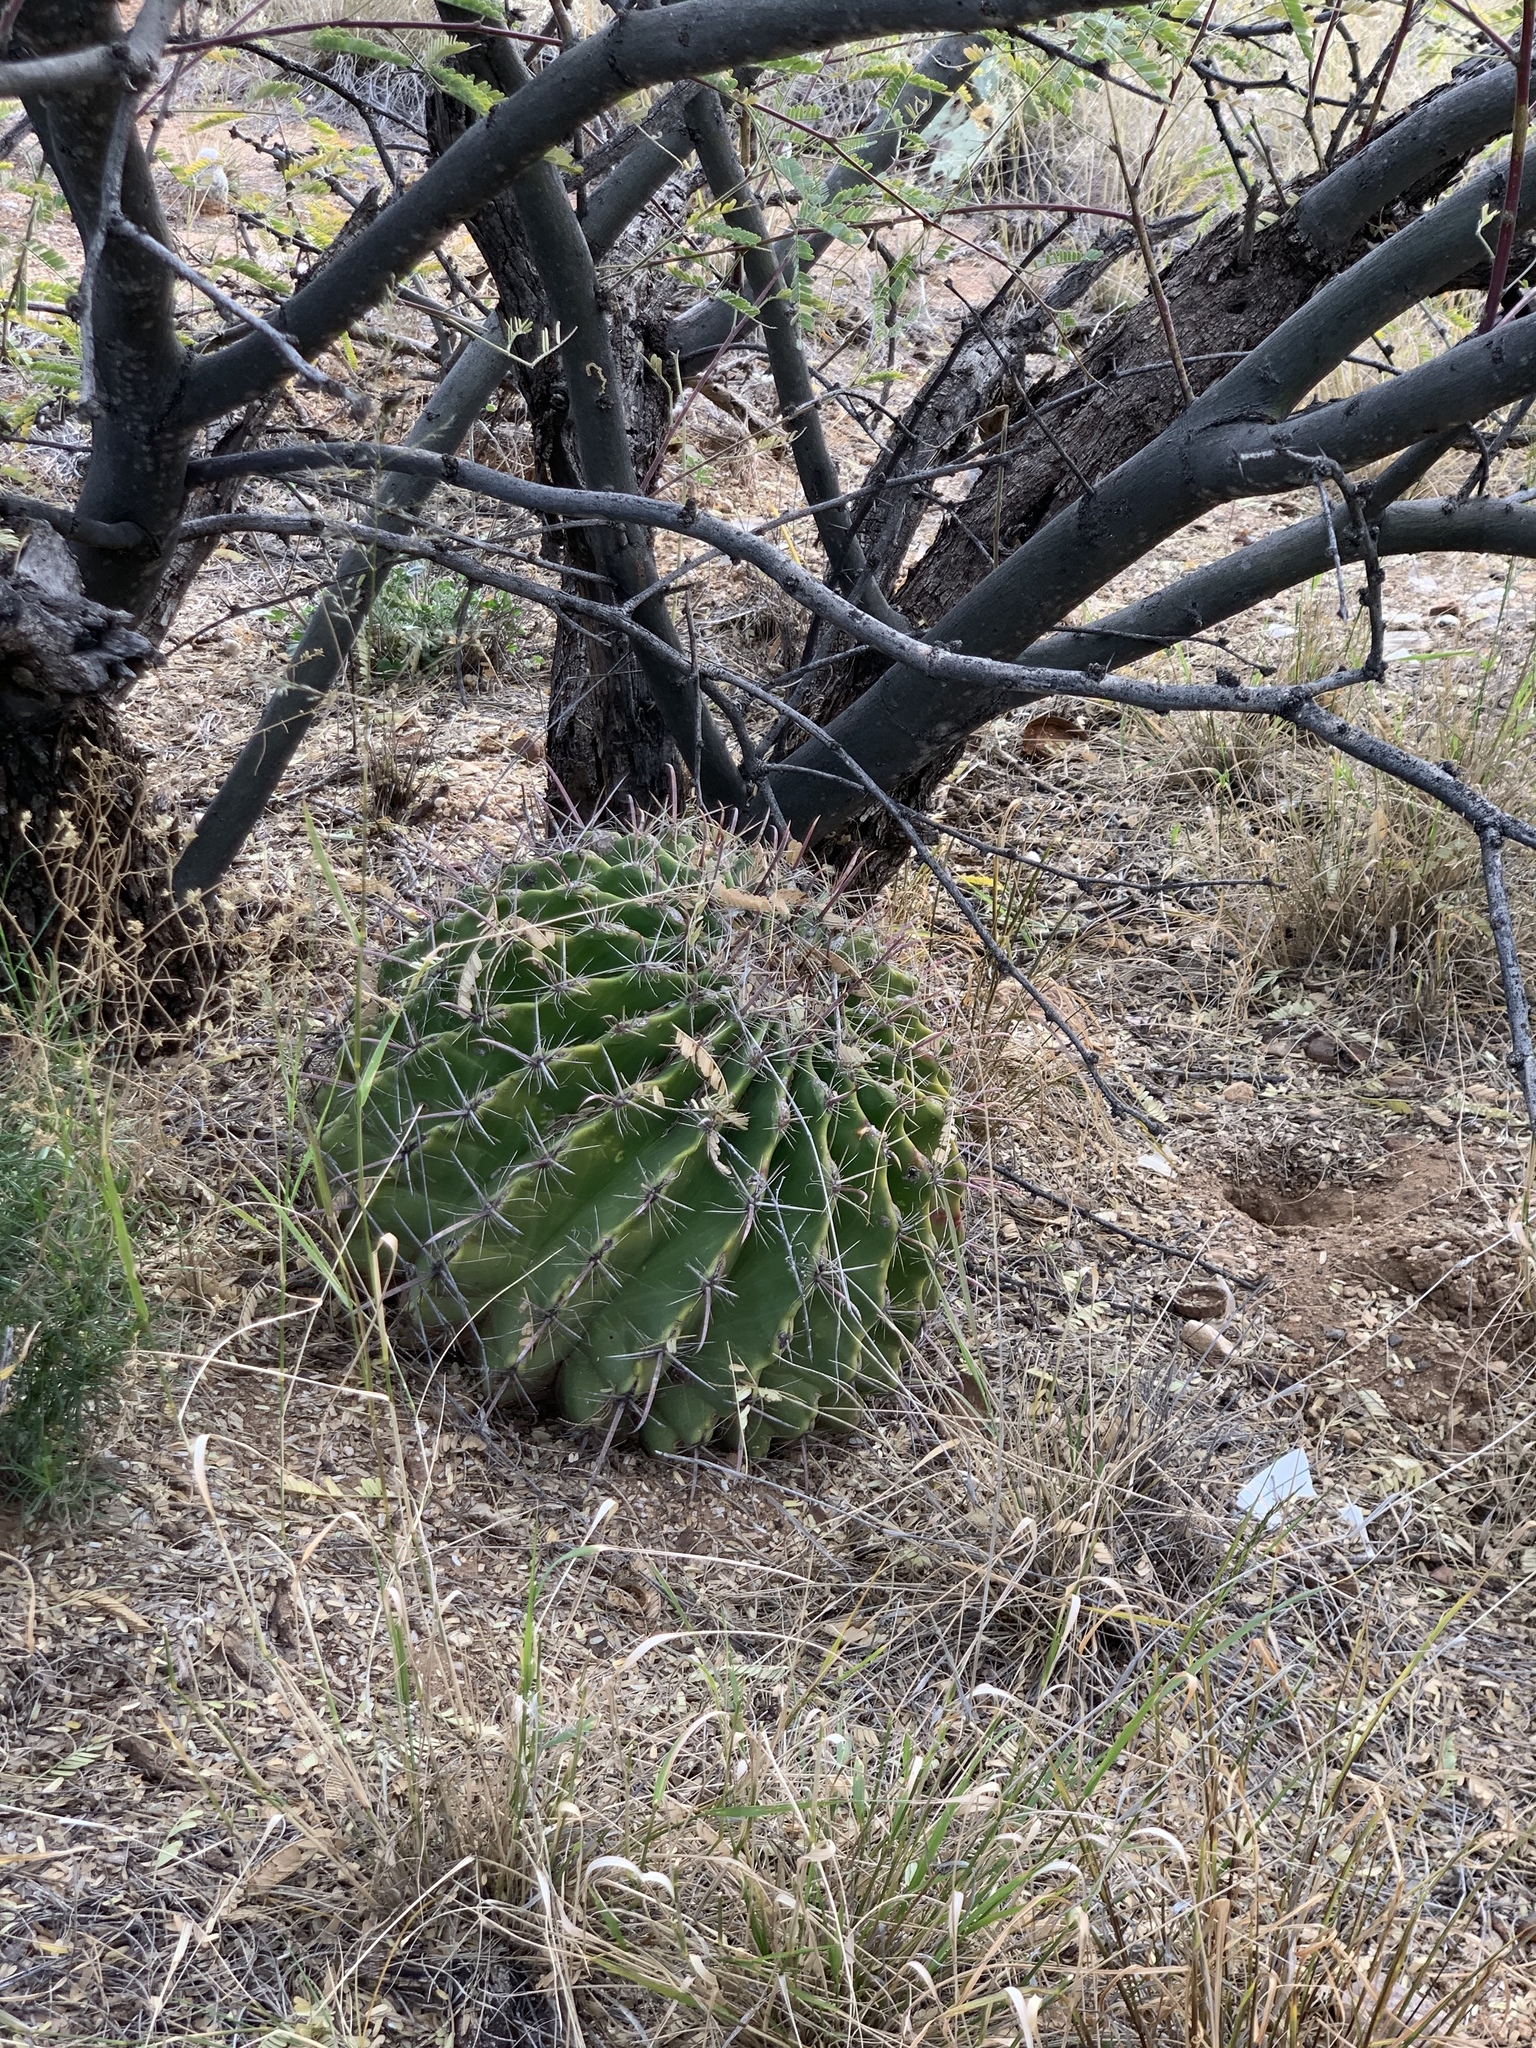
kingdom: Plantae
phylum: Tracheophyta
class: Magnoliopsida
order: Caryophyllales
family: Cactaceae
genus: Ferocactus
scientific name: Ferocactus wislizeni
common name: Candy barrel cactus
